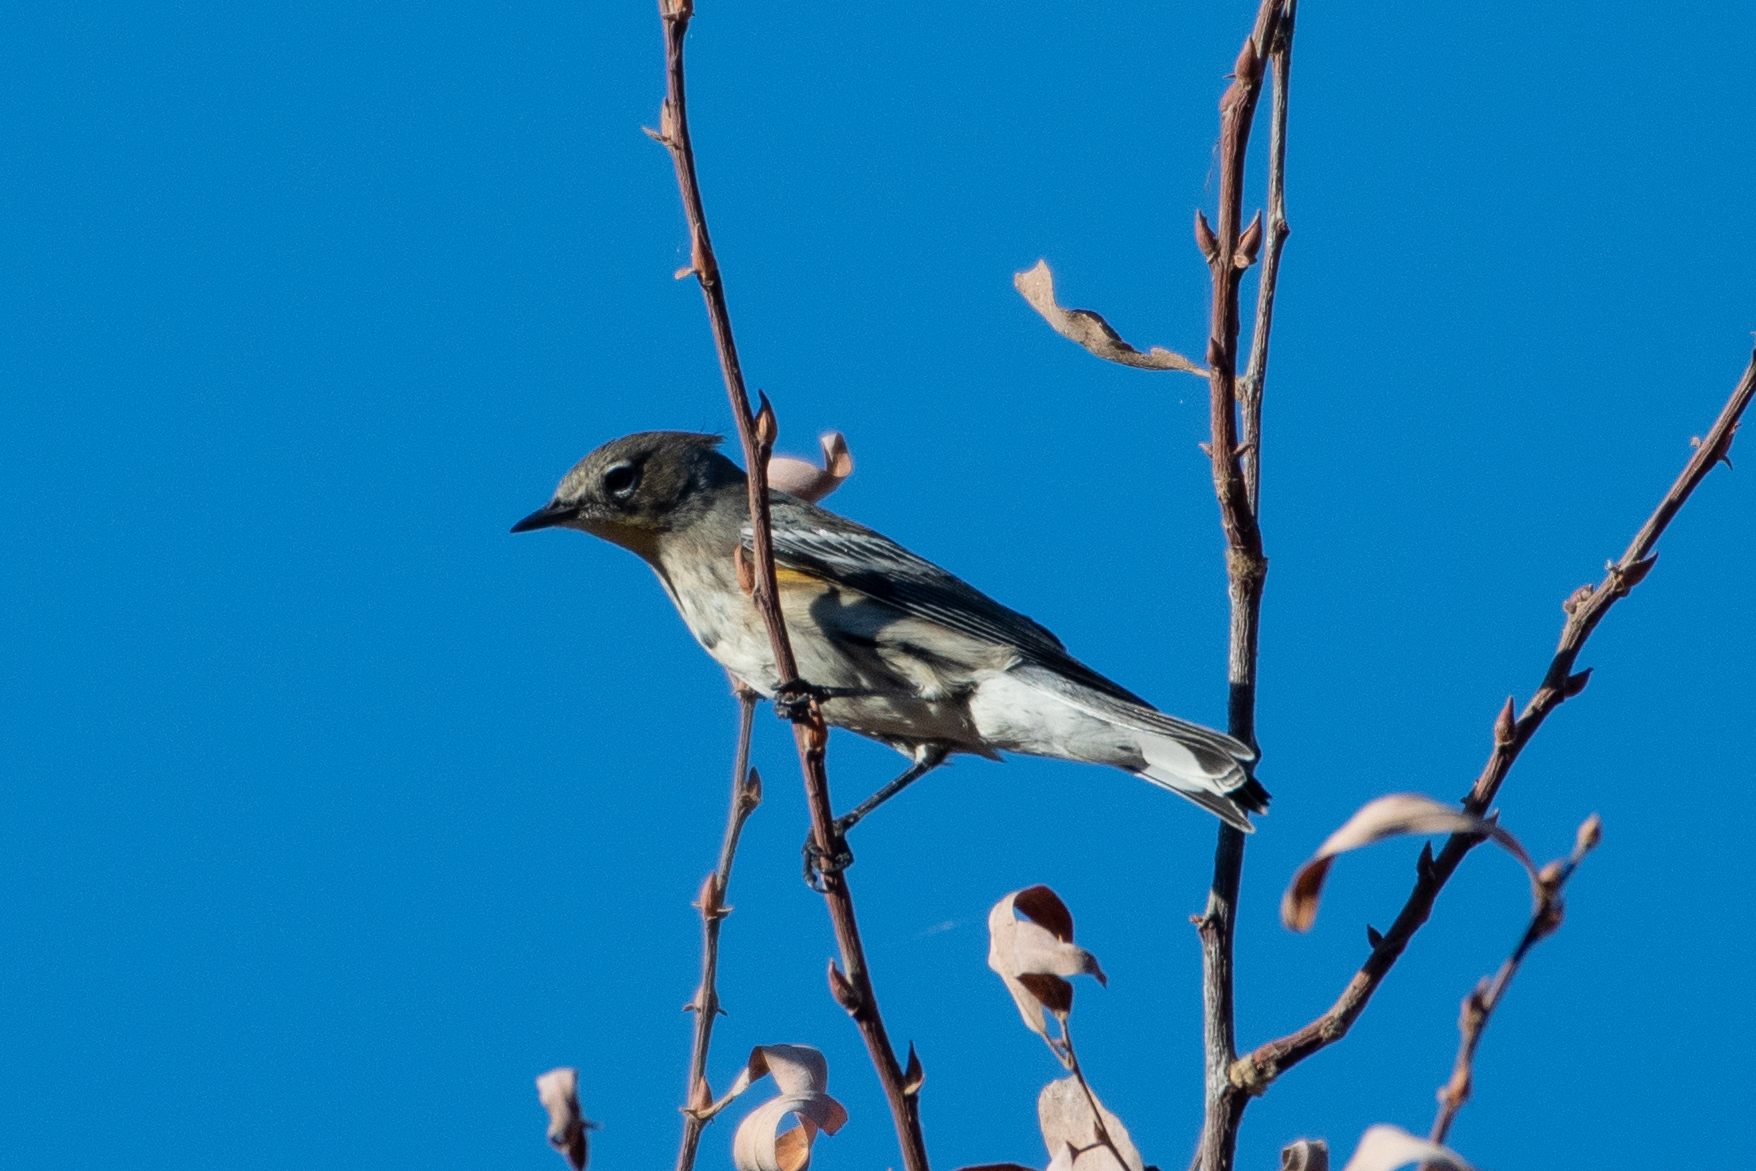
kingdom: Animalia
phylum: Chordata
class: Aves
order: Passeriformes
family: Parulidae
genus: Setophaga
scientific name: Setophaga coronata
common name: Myrtle warbler
